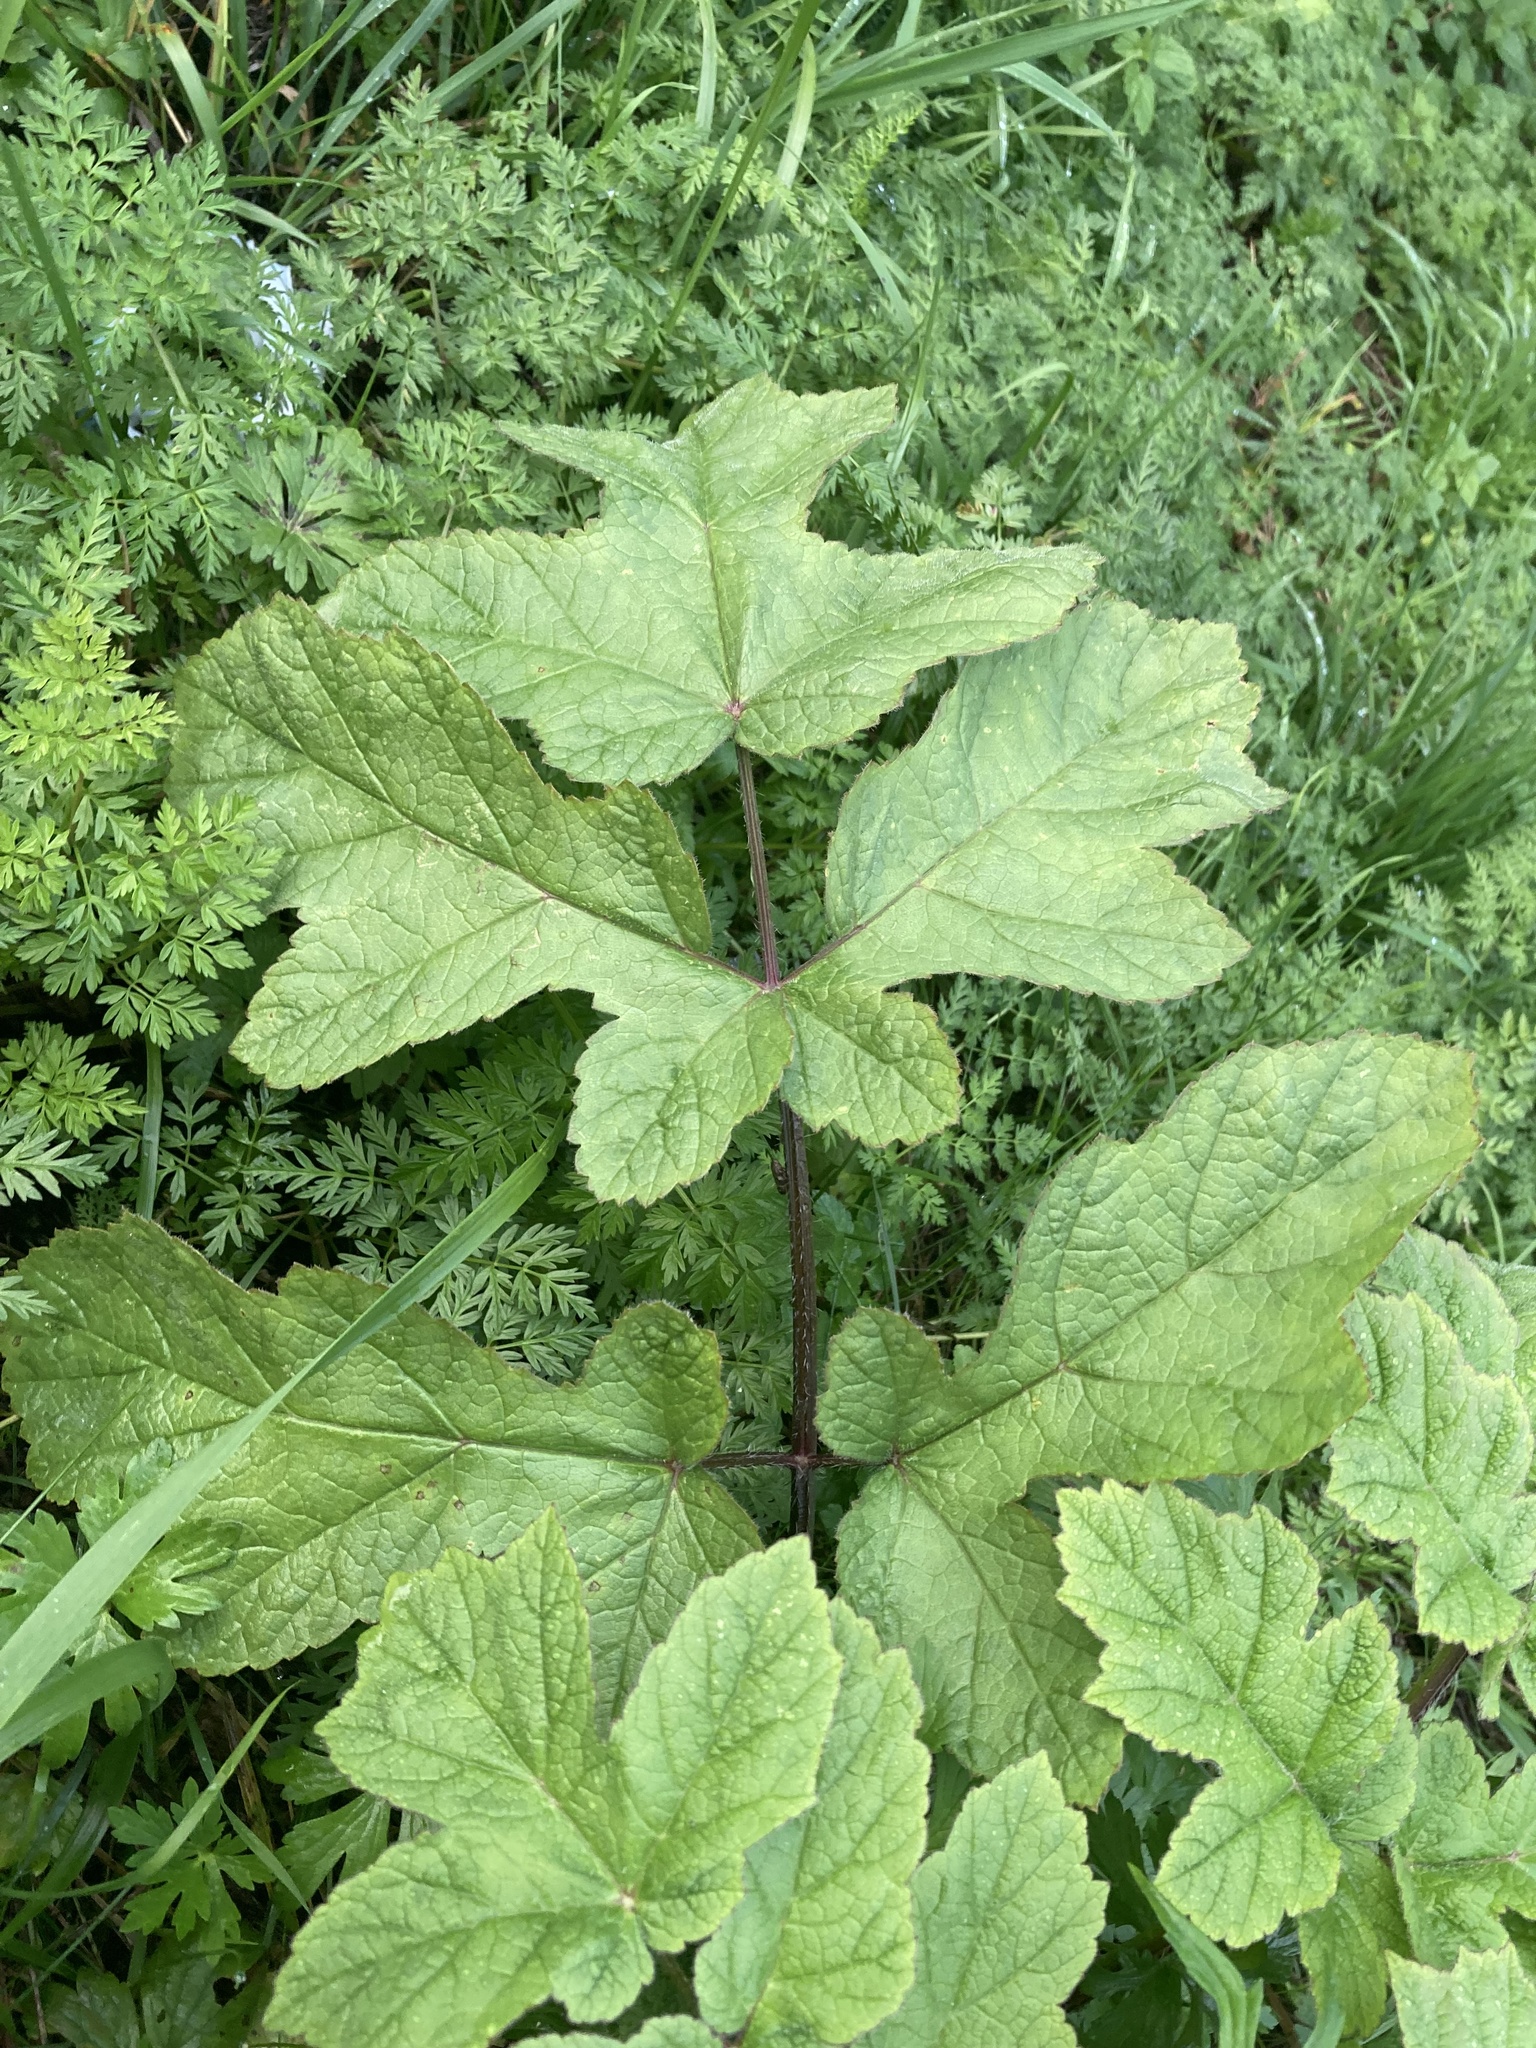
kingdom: Plantae
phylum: Tracheophyta
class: Magnoliopsida
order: Apiales
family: Apiaceae
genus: Heracleum
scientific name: Heracleum sphondylium
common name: Hogweed
